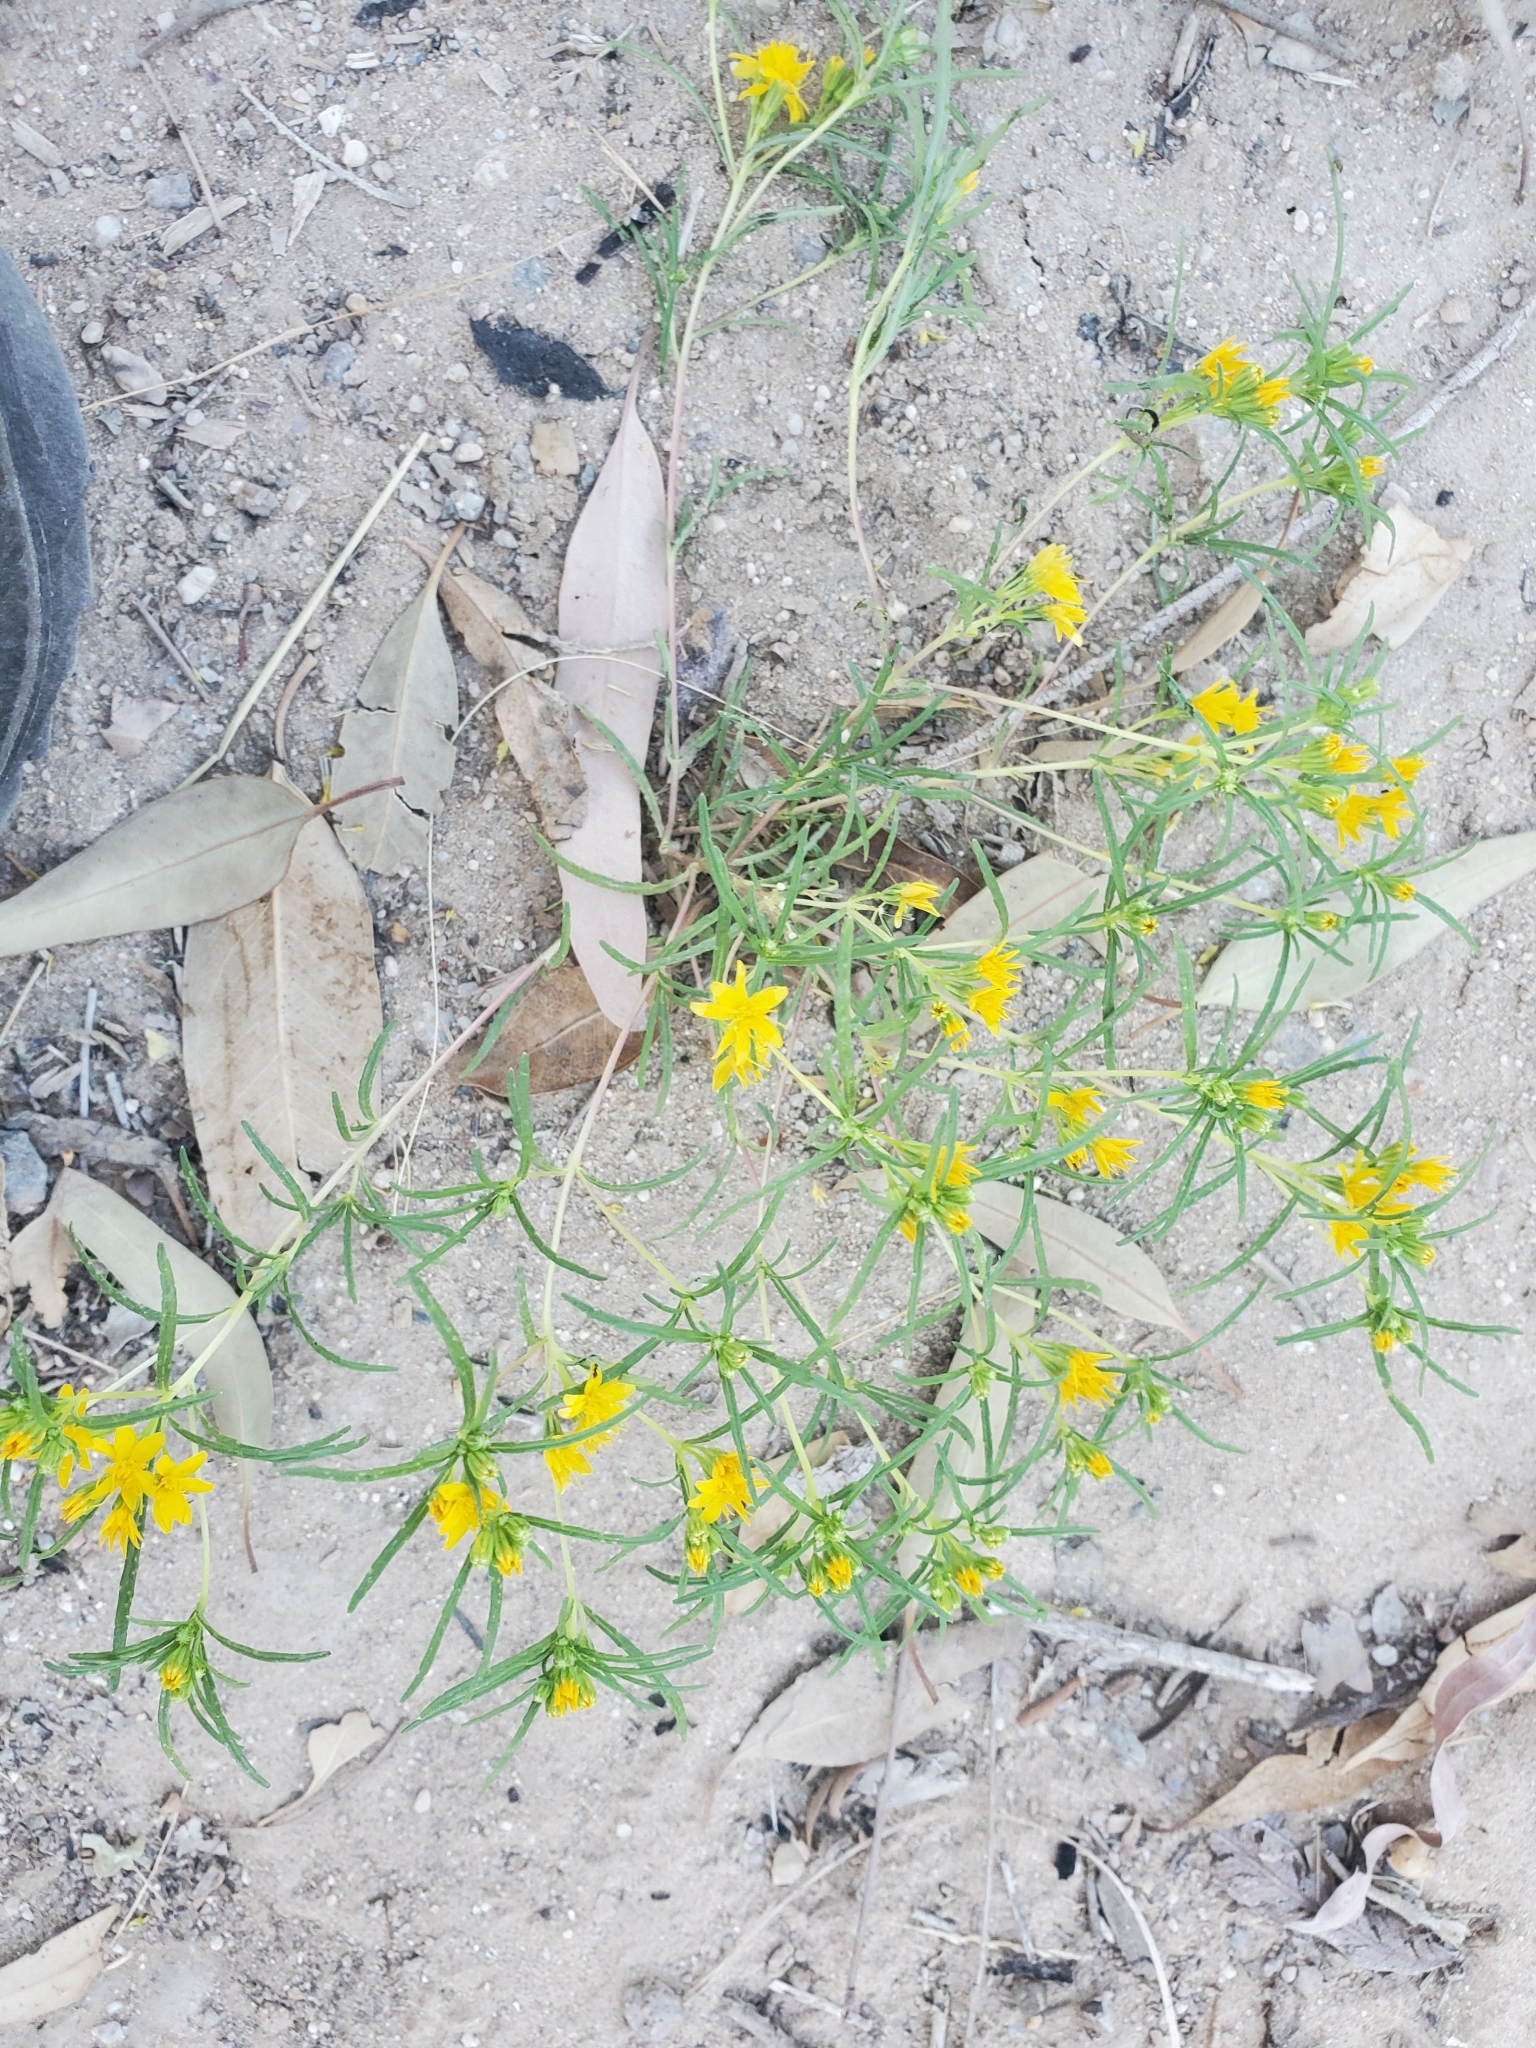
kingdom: Plantae
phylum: Tracheophyta
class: Magnoliopsida
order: Asterales
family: Asteraceae
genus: Pectis
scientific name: Pectis papposa
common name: Many-bristle chinchweed
